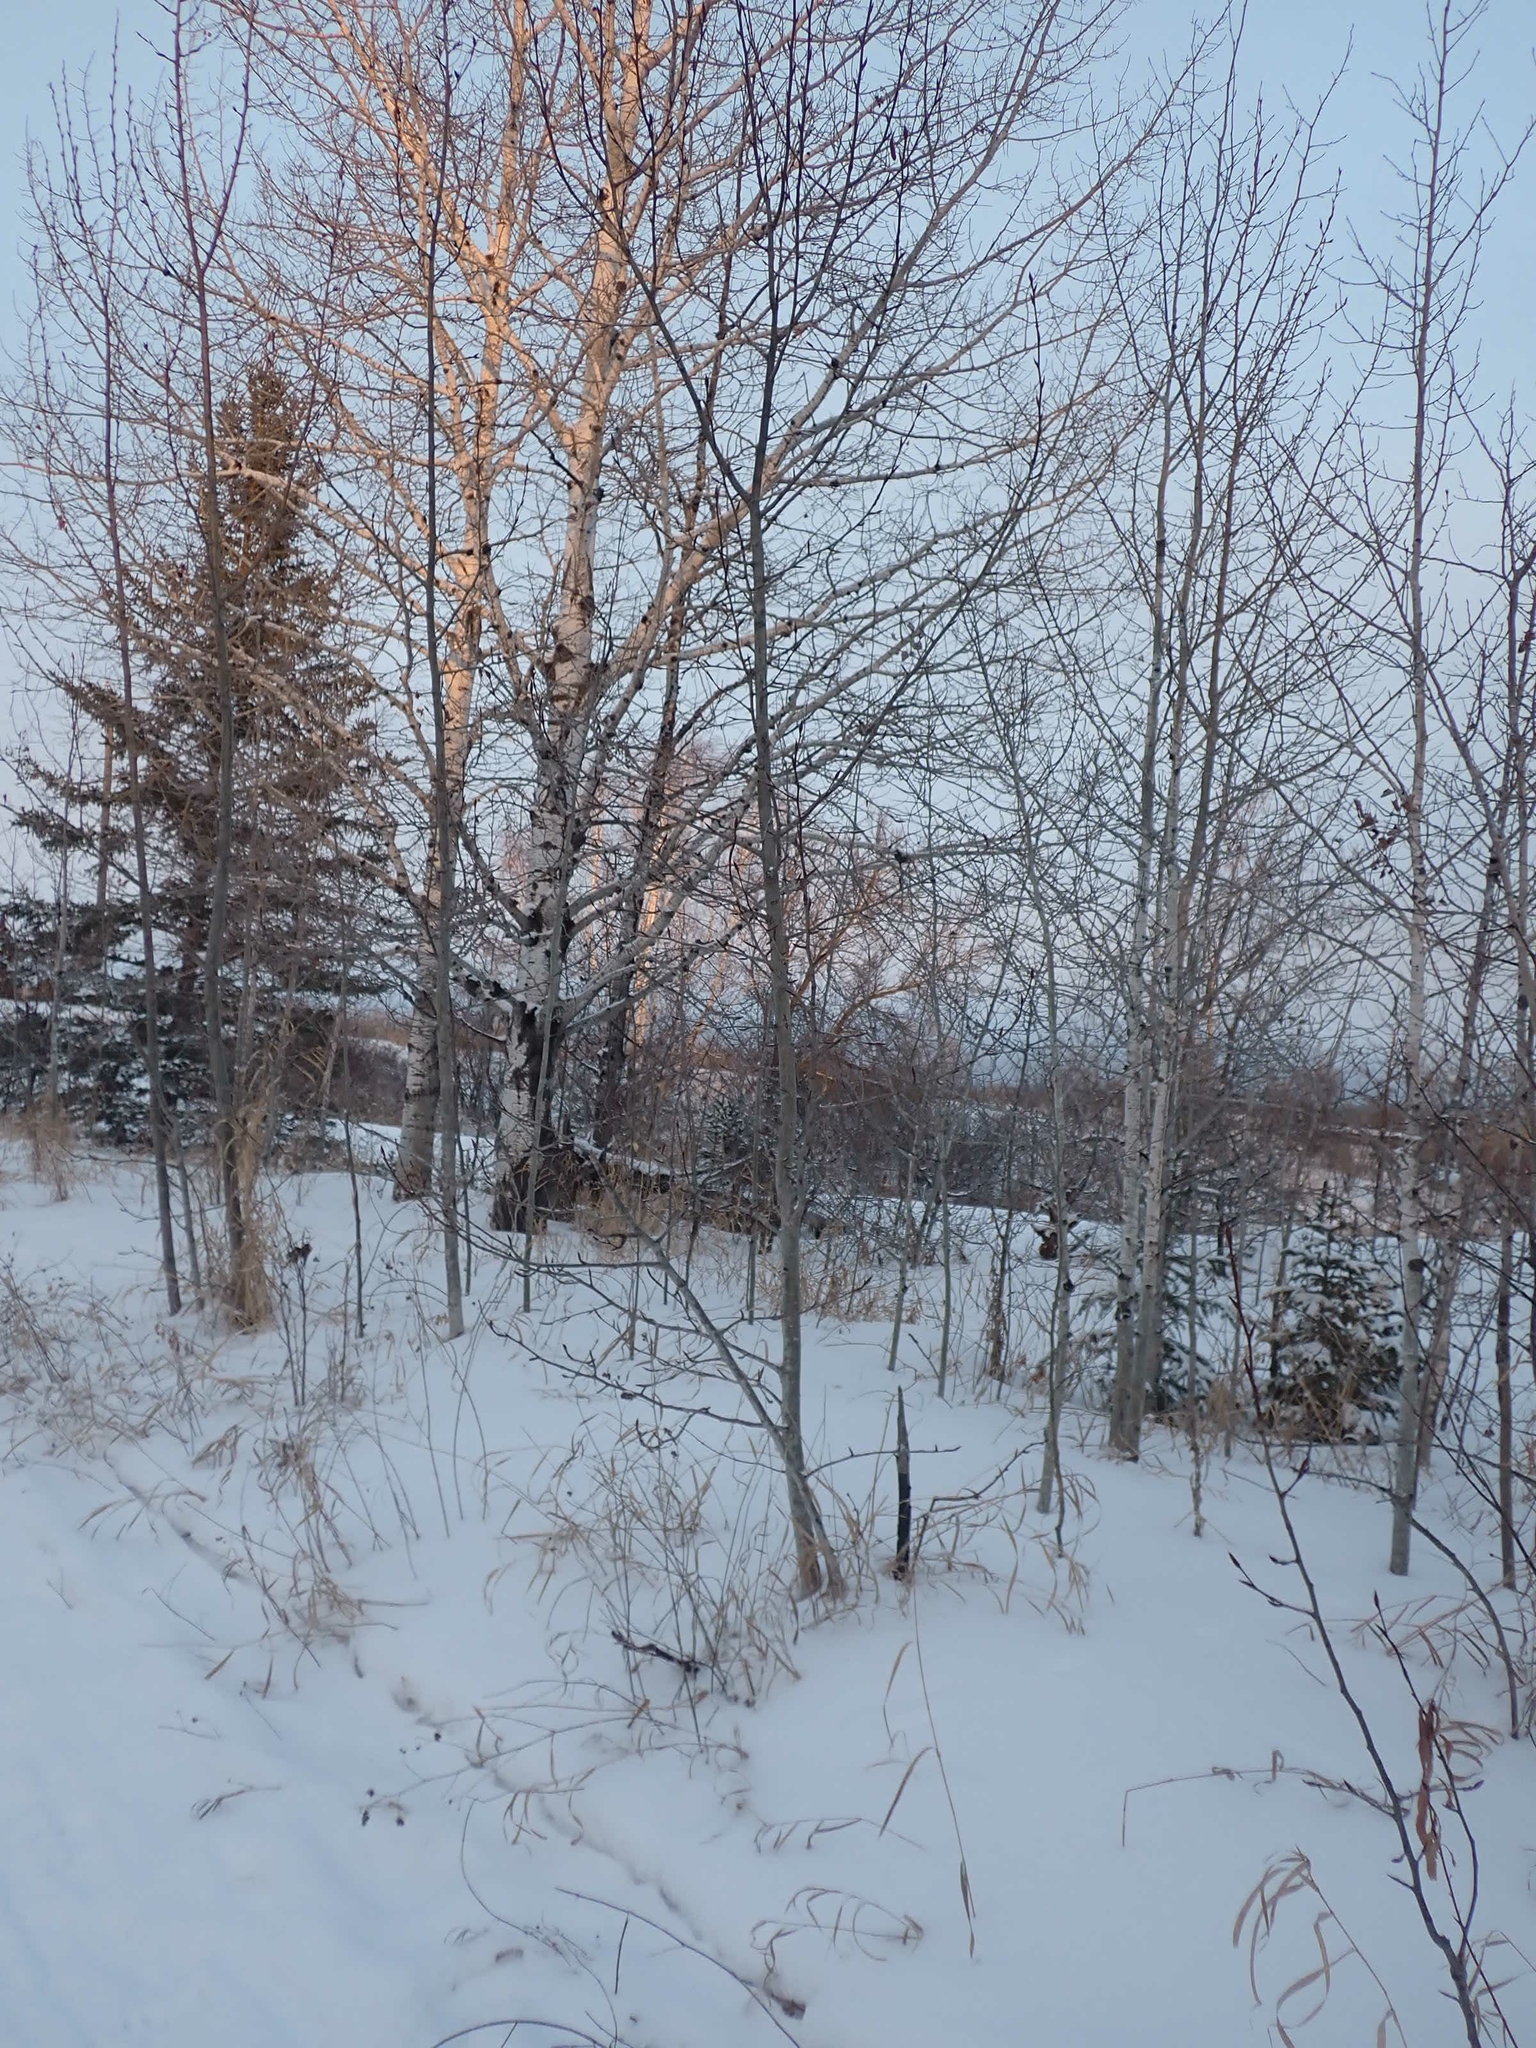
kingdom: Plantae
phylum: Tracheophyta
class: Magnoliopsida
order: Malpighiales
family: Salicaceae
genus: Populus
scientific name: Populus balsamifera
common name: Balsam poplar
